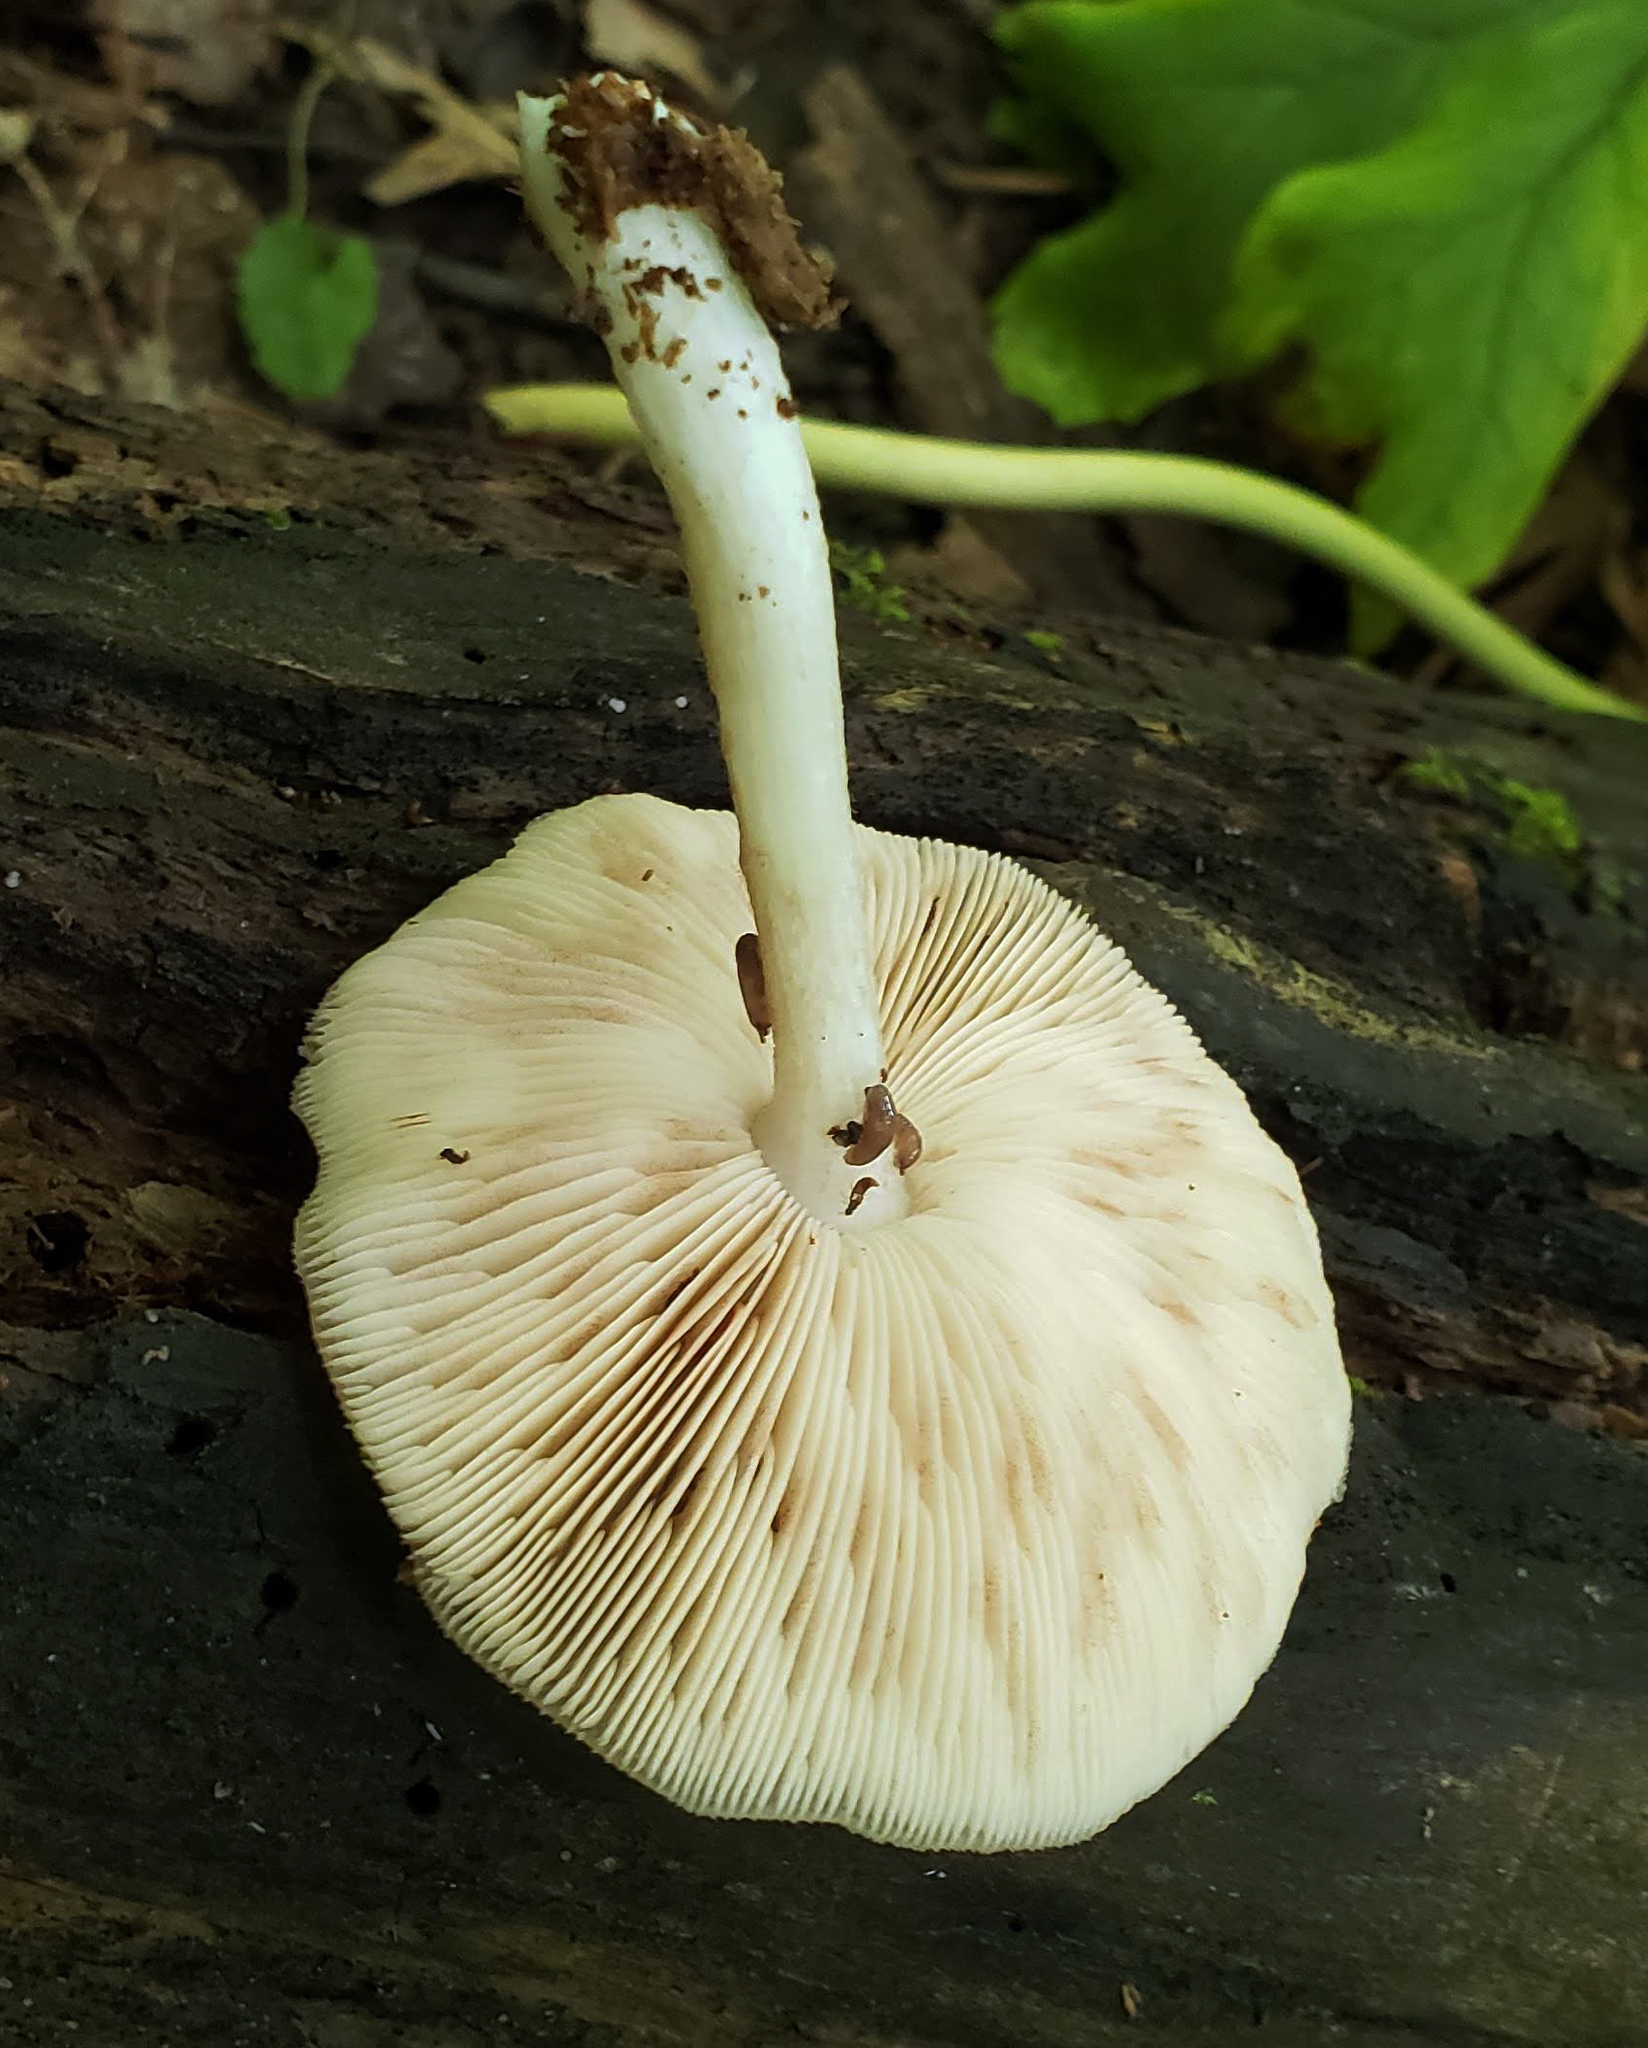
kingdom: Fungi
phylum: Basidiomycota
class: Agaricomycetes
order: Agaricales
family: Pluteaceae
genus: Pluteus
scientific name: Pluteus cervinus
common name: Deer shield
